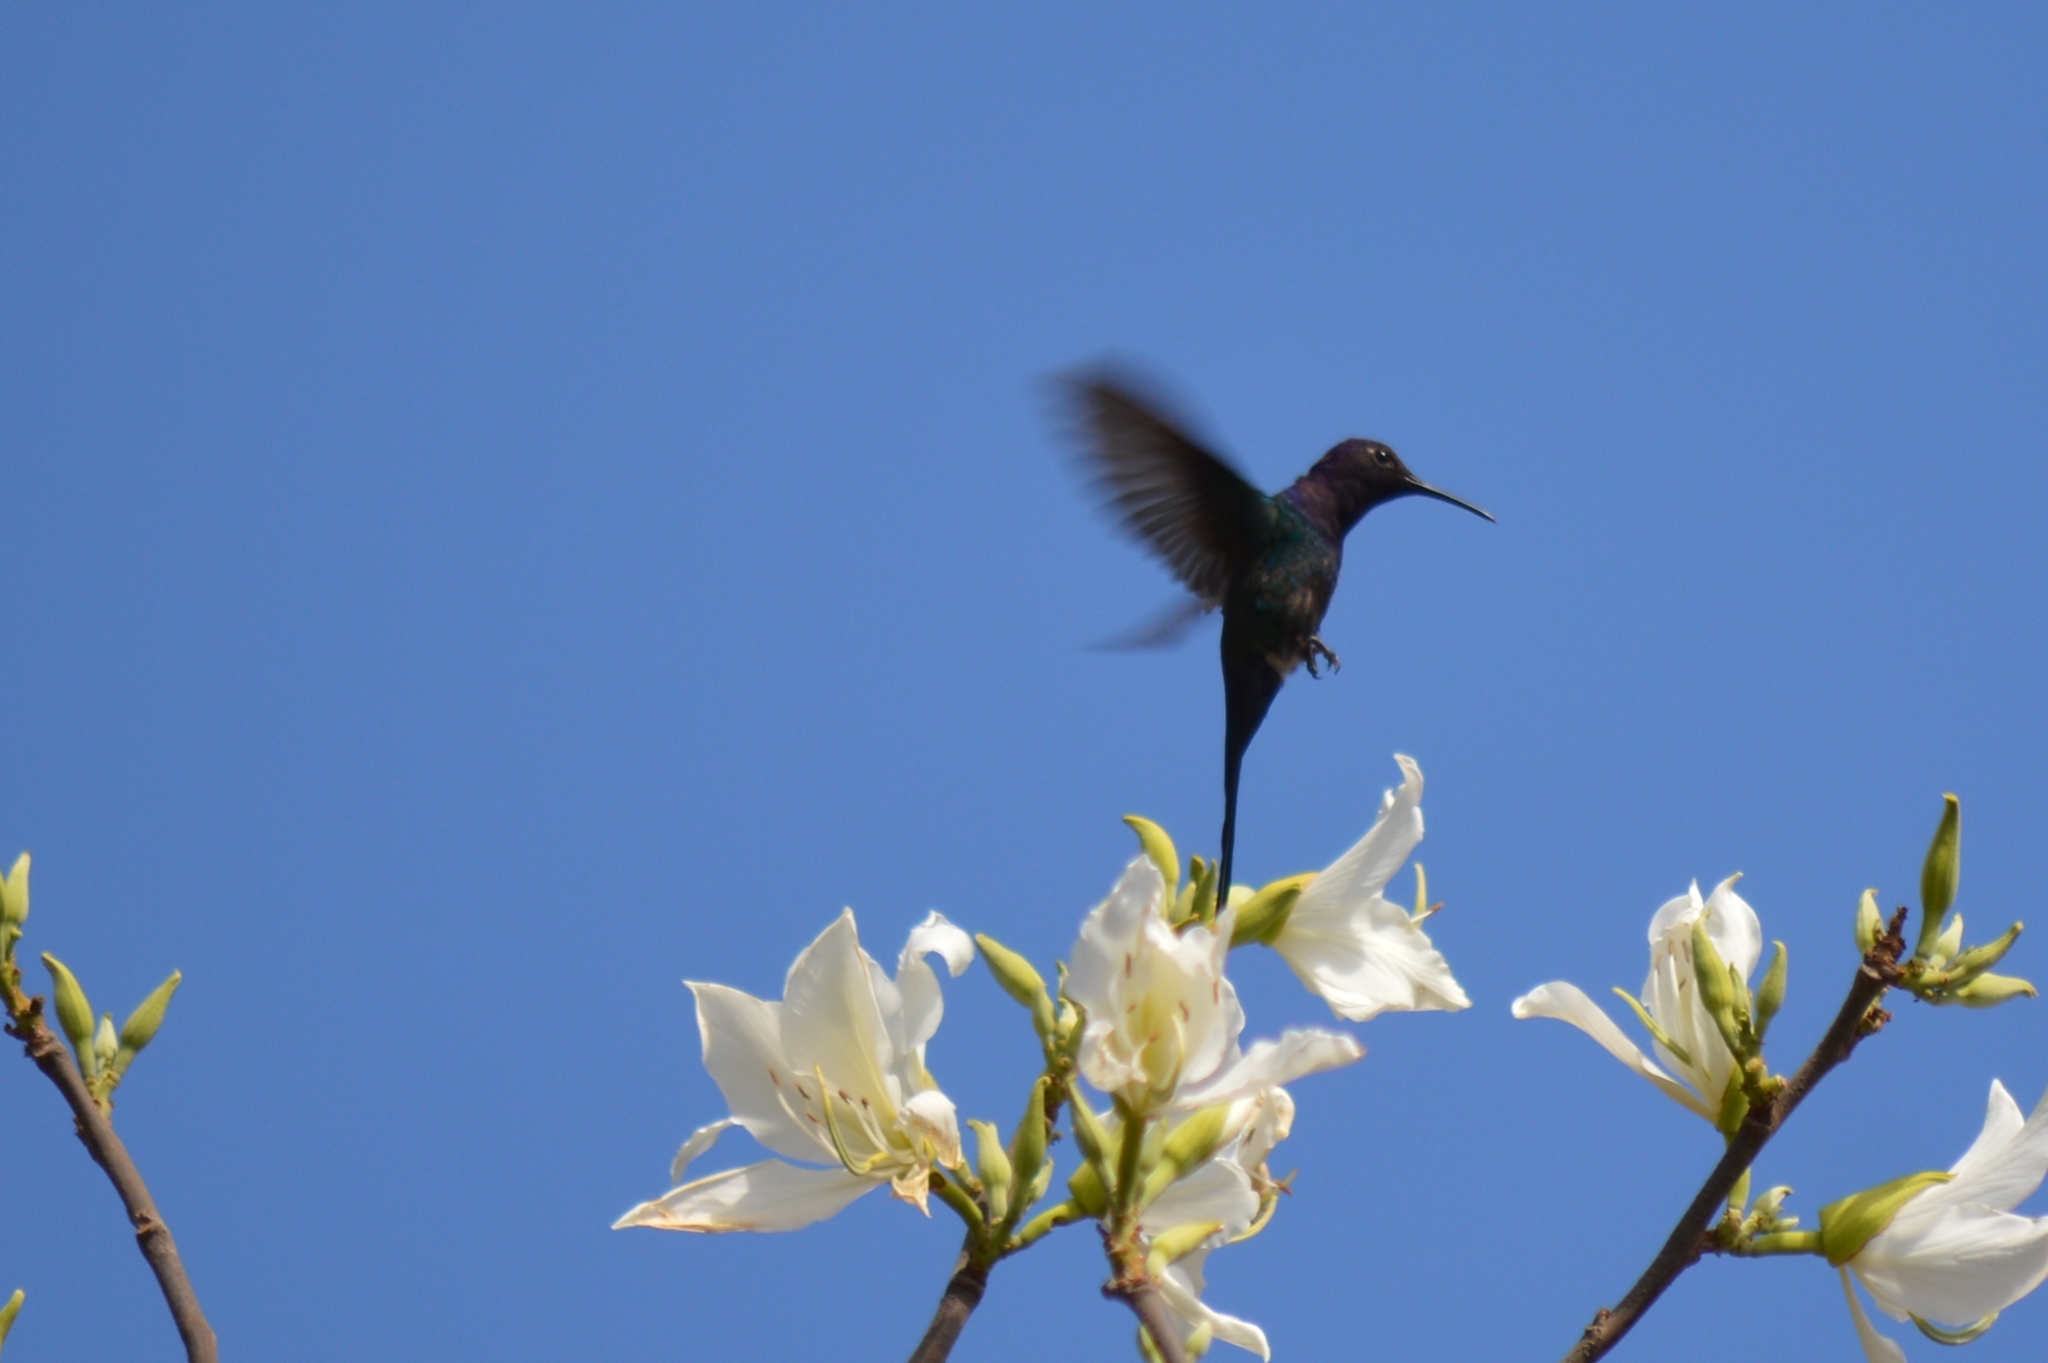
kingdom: Animalia
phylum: Chordata
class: Aves
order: Apodiformes
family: Trochilidae
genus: Eupetomena
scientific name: Eupetomena macroura
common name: Swallow-tailed hummingbird
